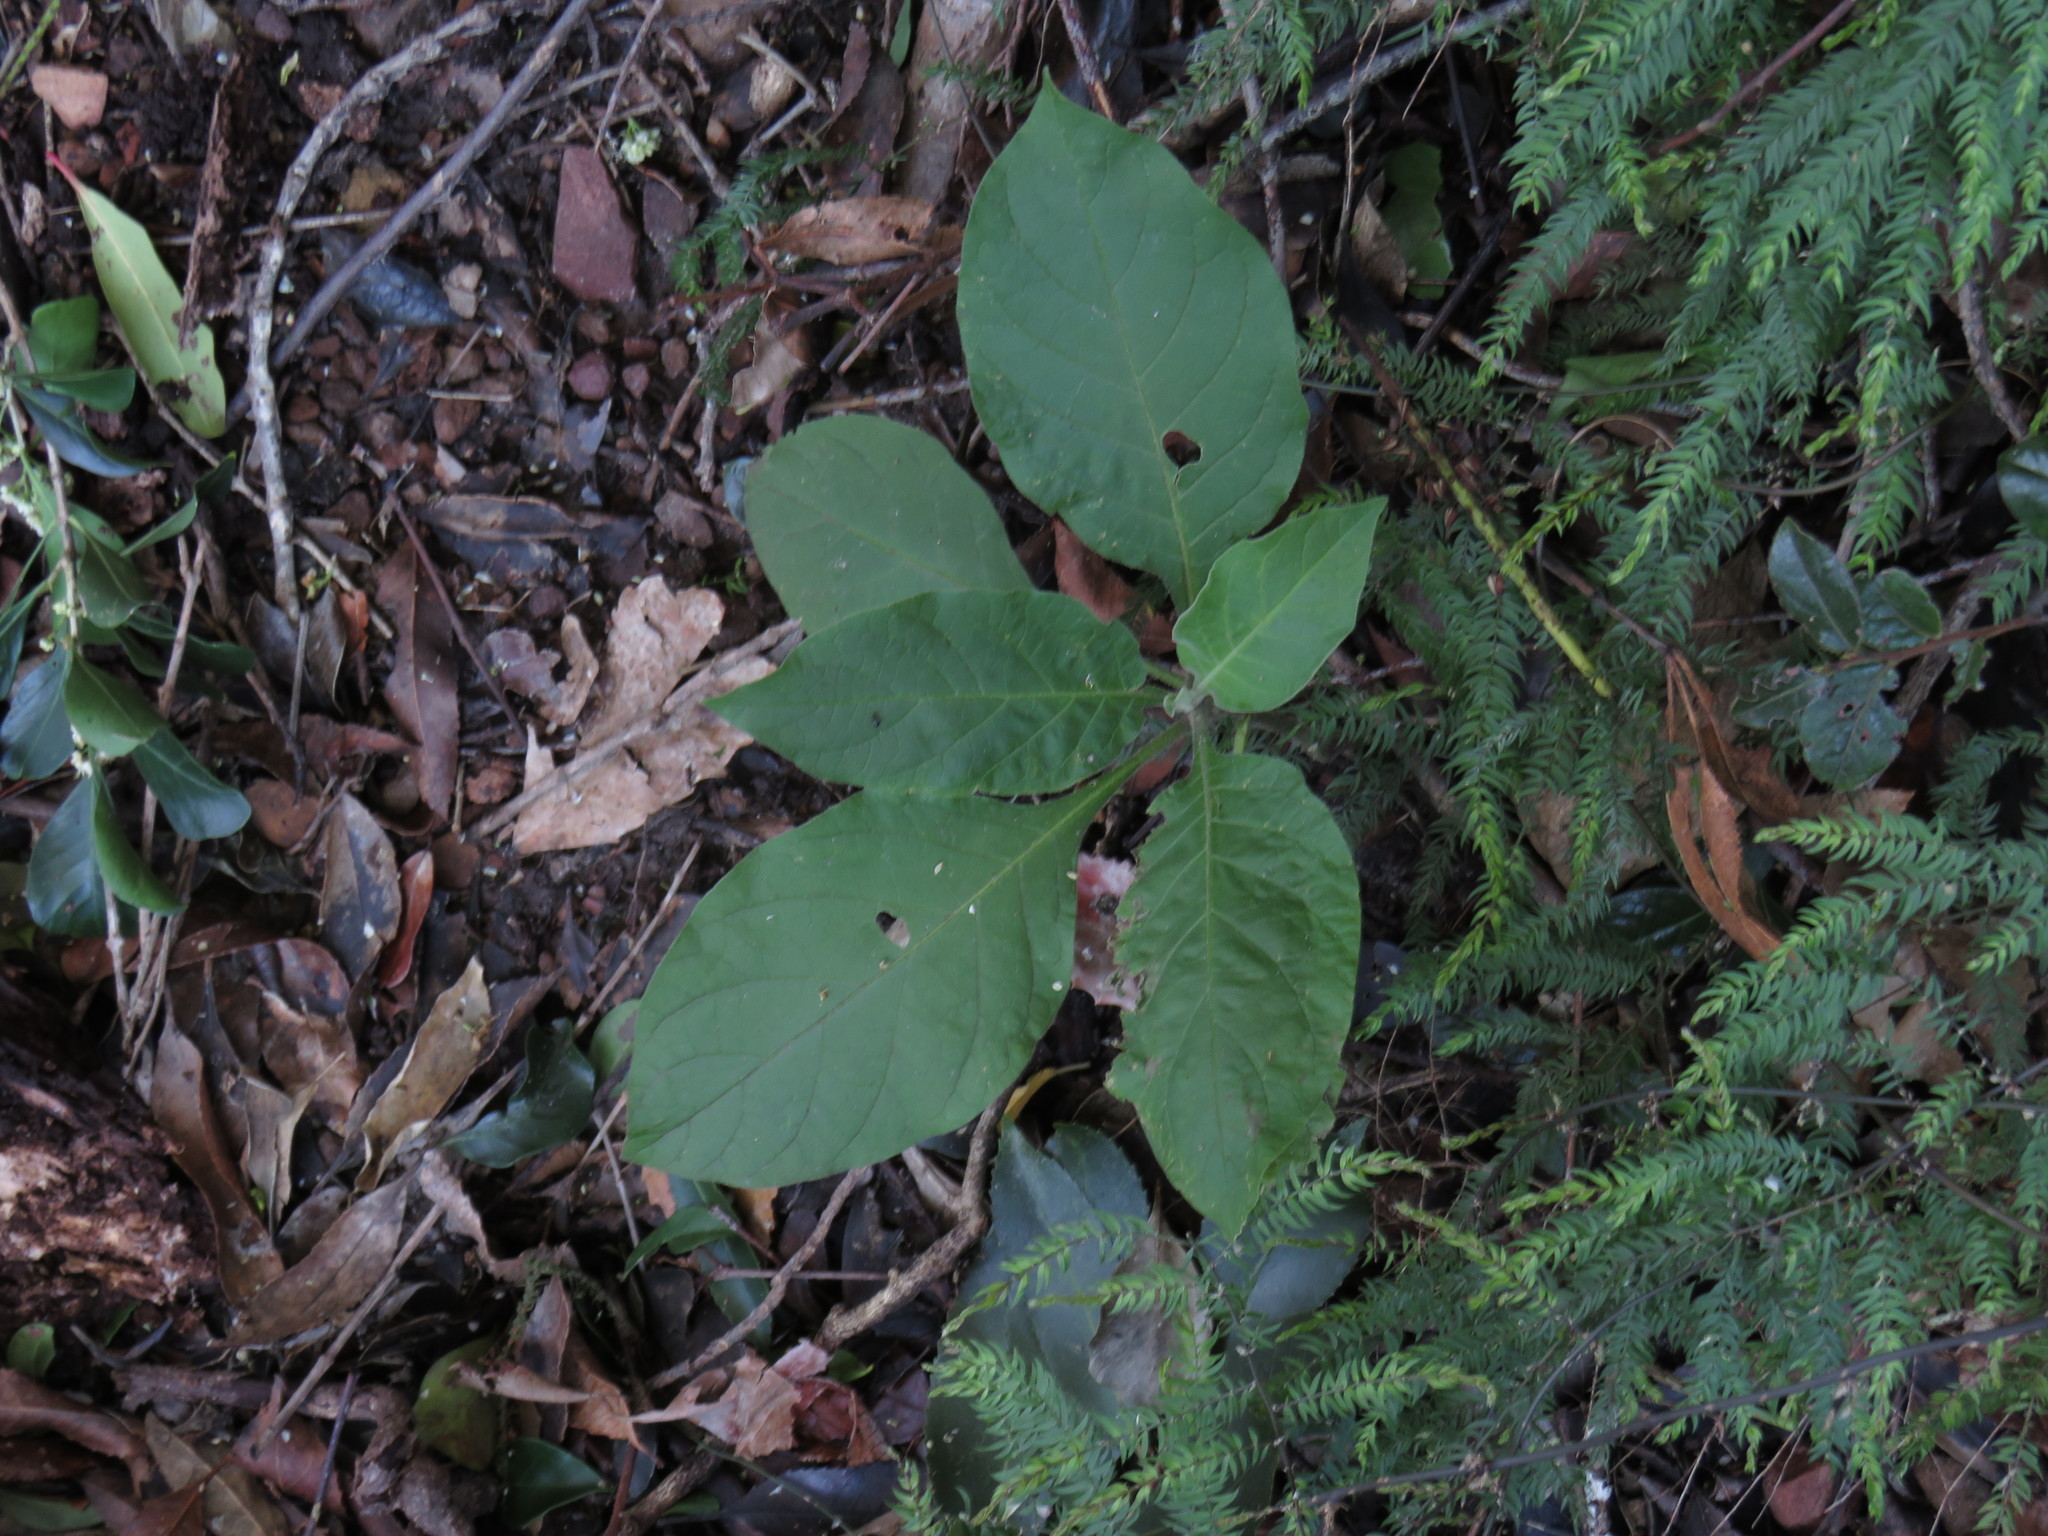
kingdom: Plantae
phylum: Tracheophyta
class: Magnoliopsida
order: Solanales
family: Solanaceae
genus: Solanum
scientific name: Solanum mauritianum
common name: Earleaf nightshade
